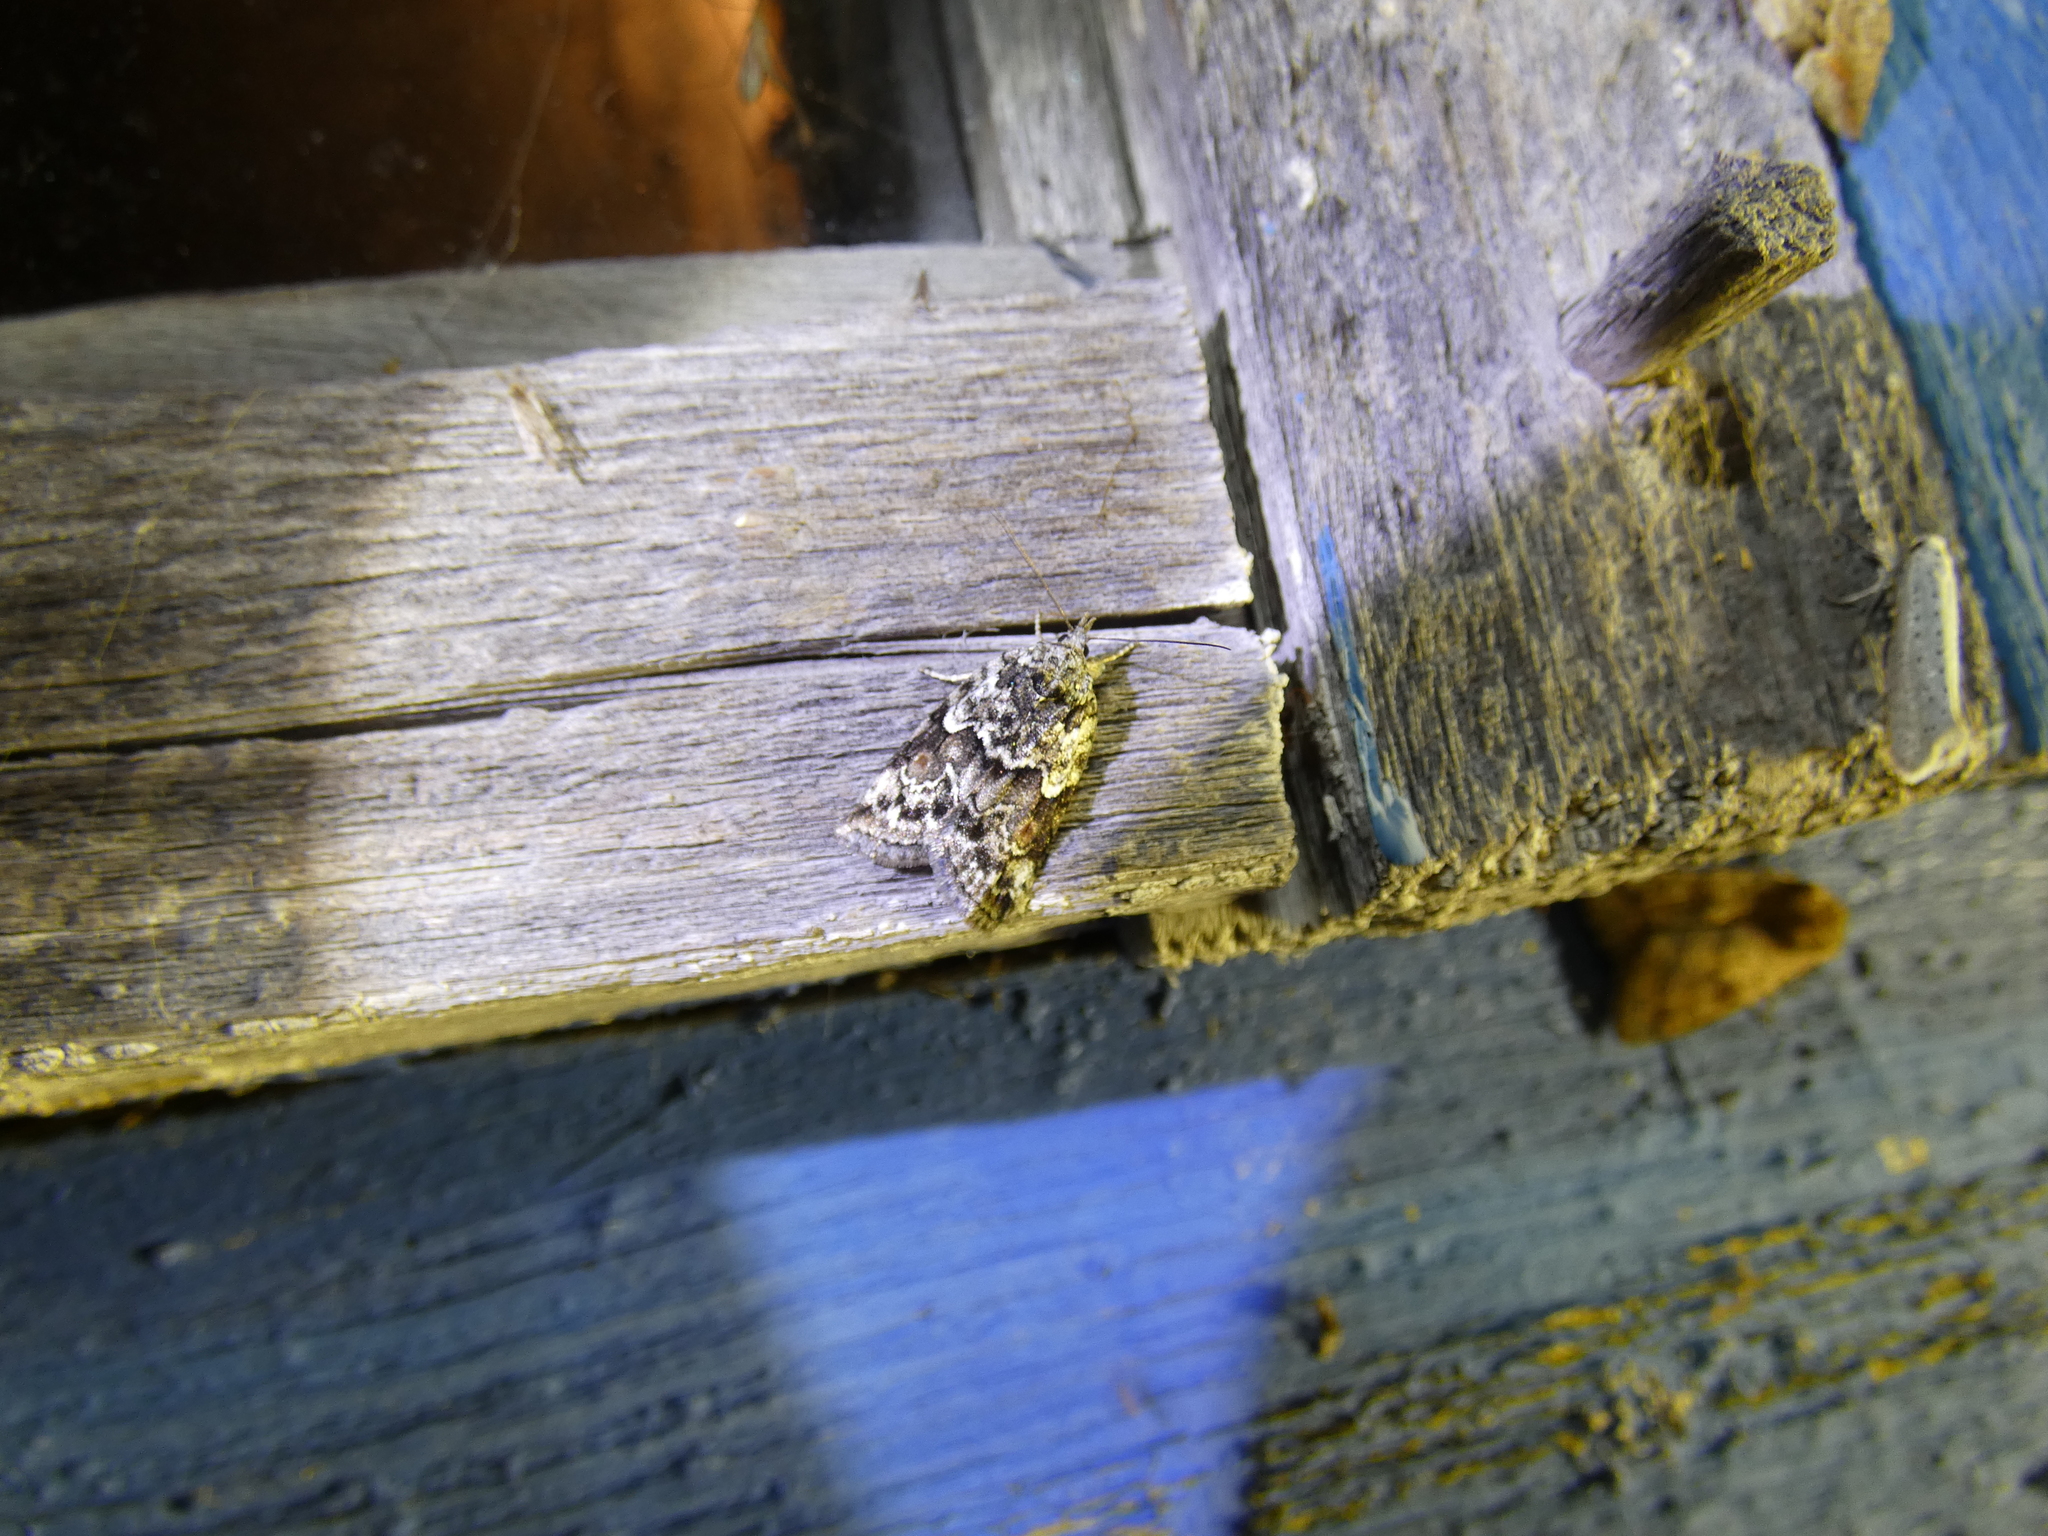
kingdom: Animalia
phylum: Arthropoda
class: Insecta
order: Lepidoptera
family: Nolidae
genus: Nycteola
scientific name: Nycteola degenerana
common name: Swallow nycteoline
